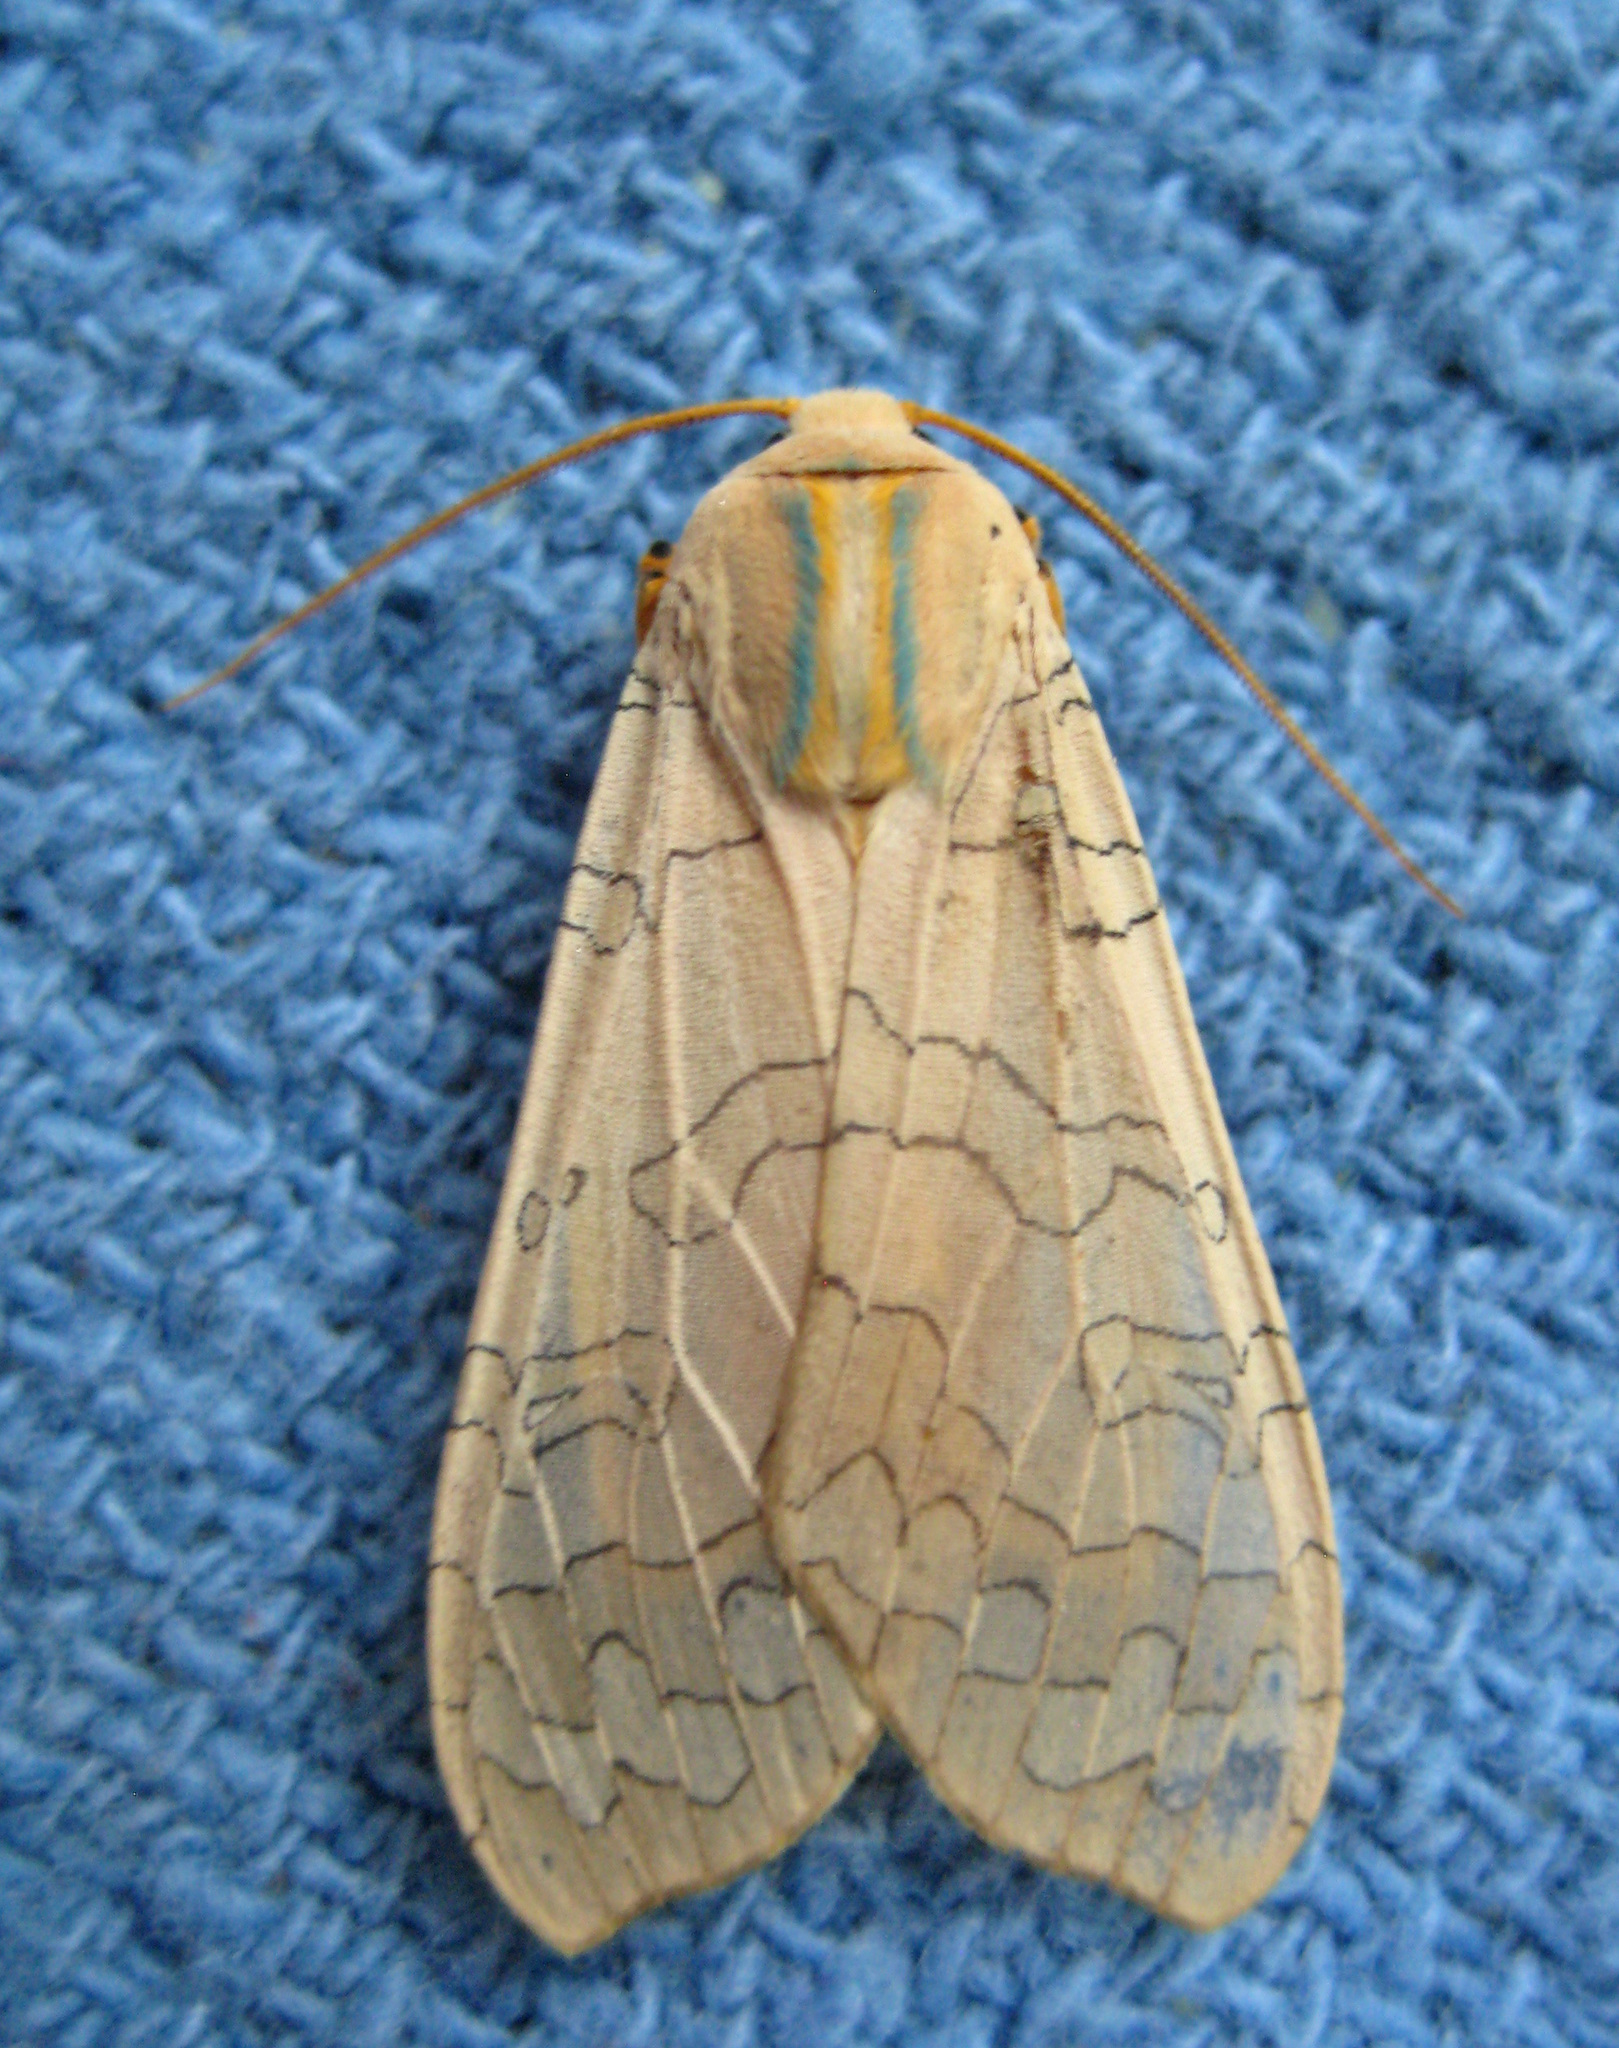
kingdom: Animalia
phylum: Arthropoda
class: Insecta
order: Lepidoptera
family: Erebidae
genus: Halysidota
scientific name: Halysidota
